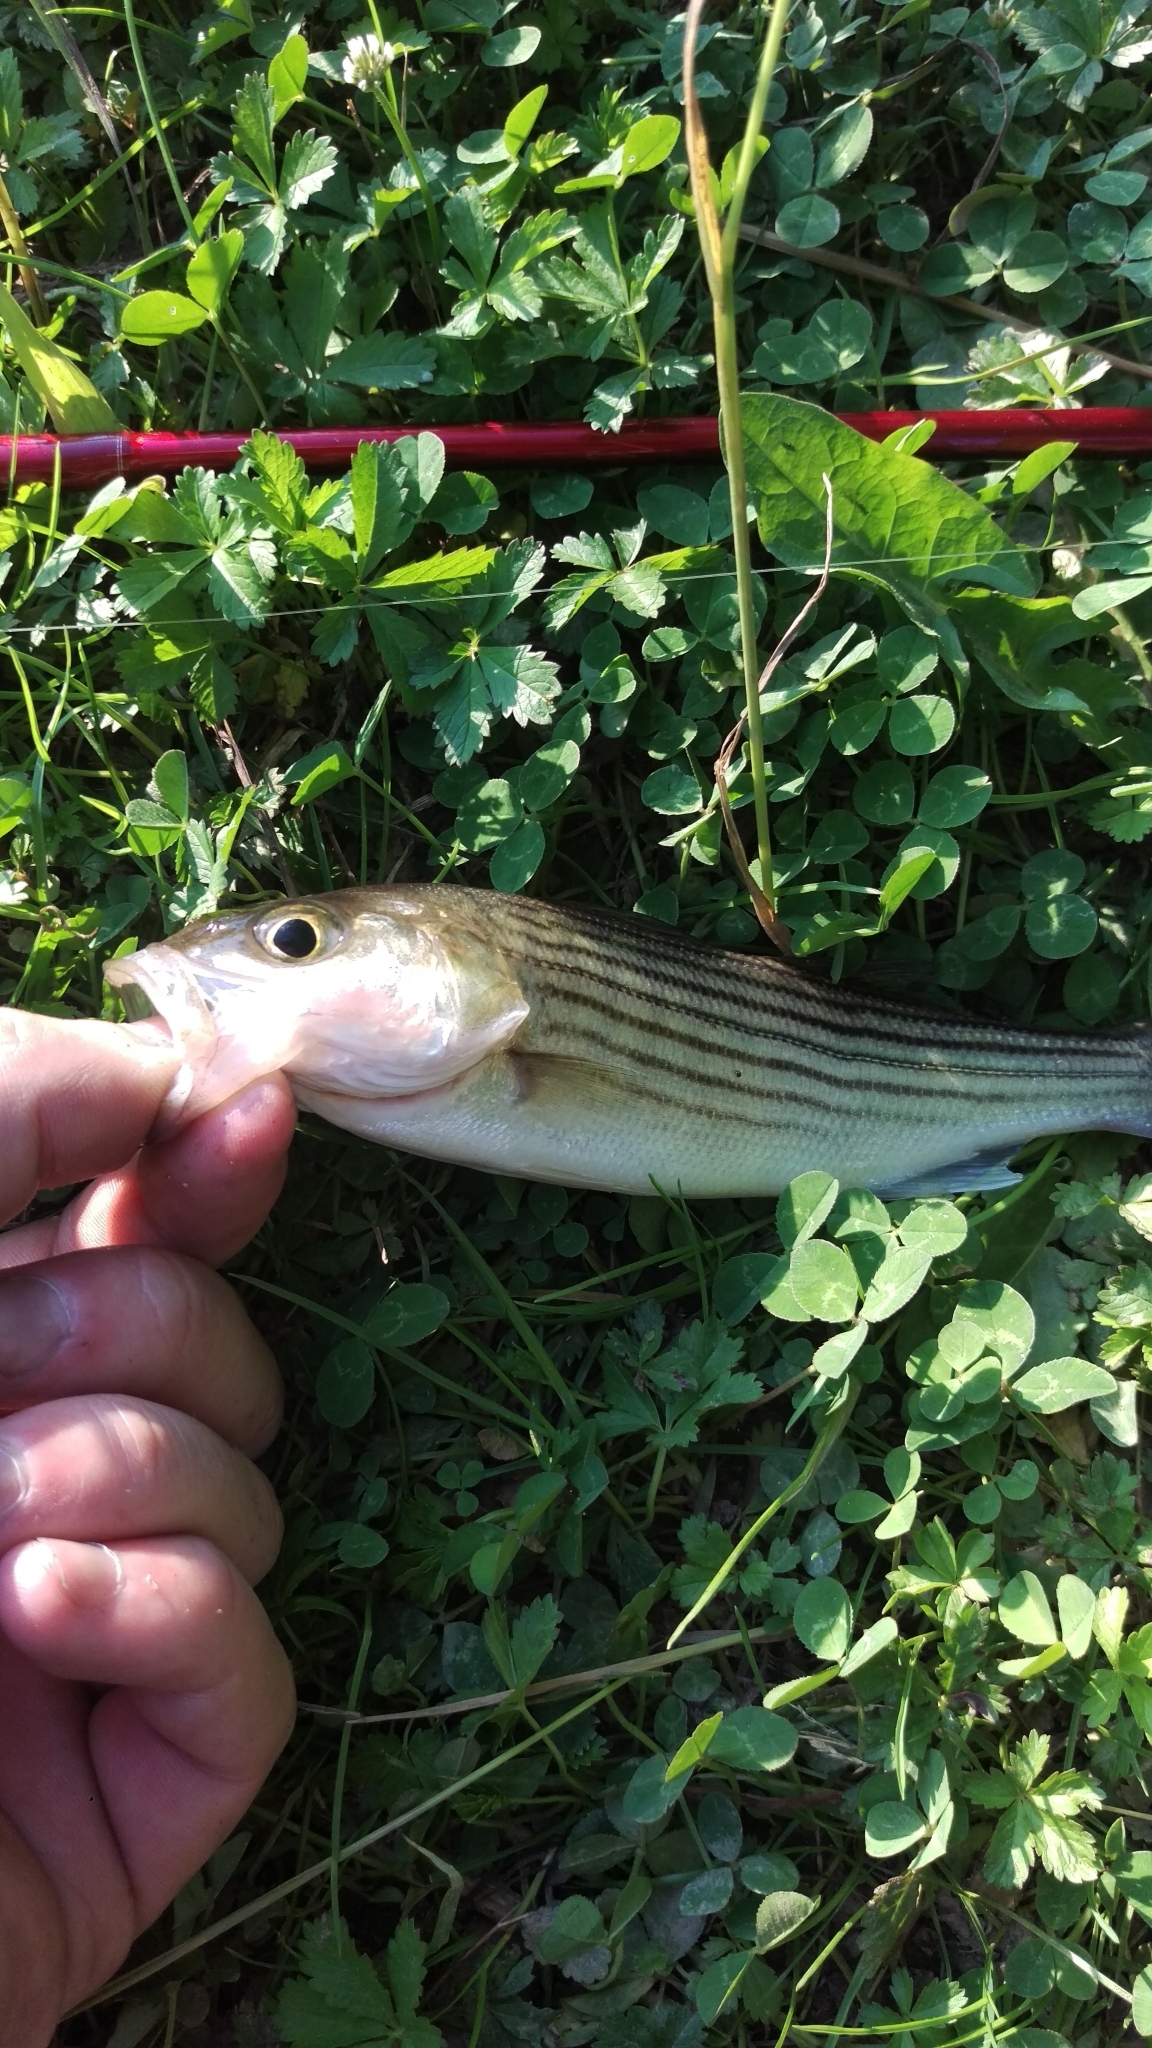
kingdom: Animalia
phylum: Chordata
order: Perciformes
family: Moronidae
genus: Morone
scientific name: Morone saxatilis
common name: Striped bass
